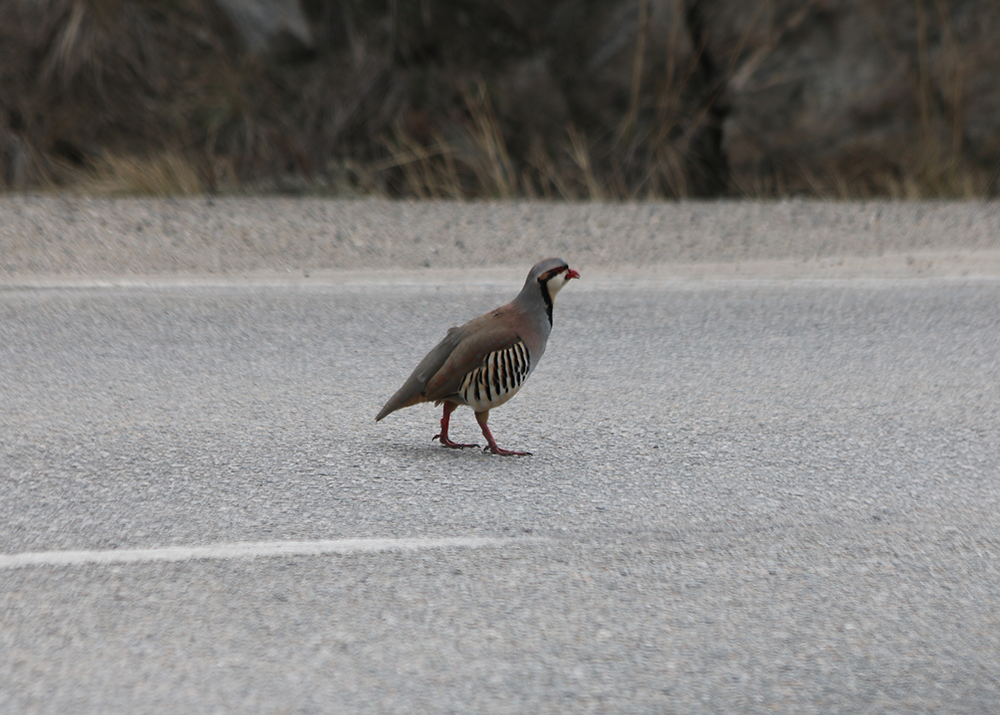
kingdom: Animalia
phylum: Chordata
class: Aves
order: Galliformes
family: Phasianidae
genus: Alectoris
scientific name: Alectoris chukar
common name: Chukar
